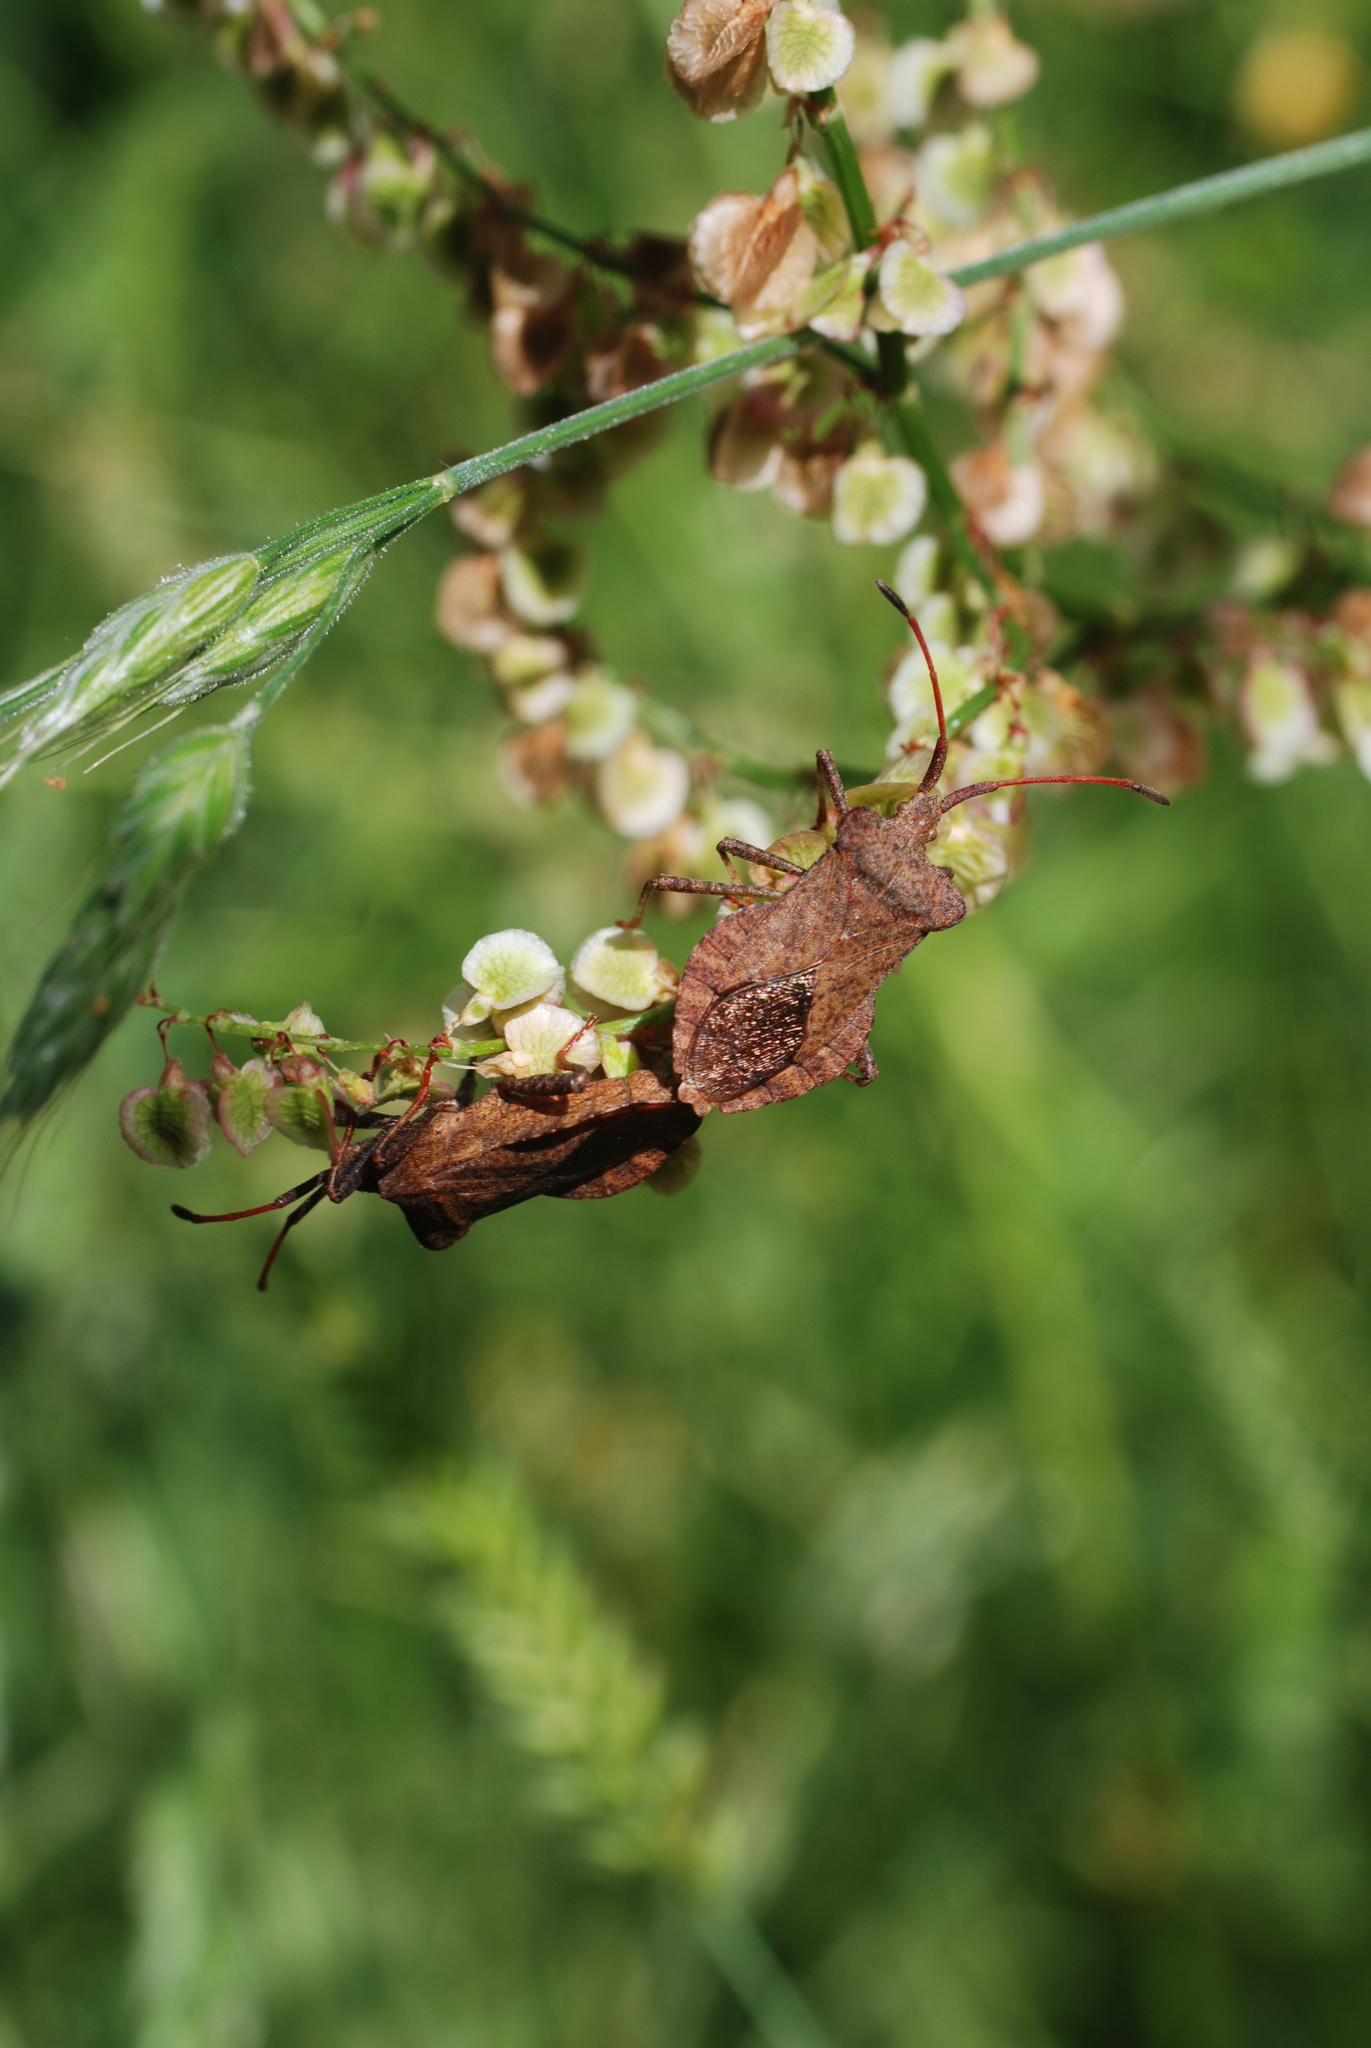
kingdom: Animalia
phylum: Arthropoda
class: Insecta
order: Hemiptera
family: Coreidae
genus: Coreus
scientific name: Coreus marginatus
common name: Dock bug
